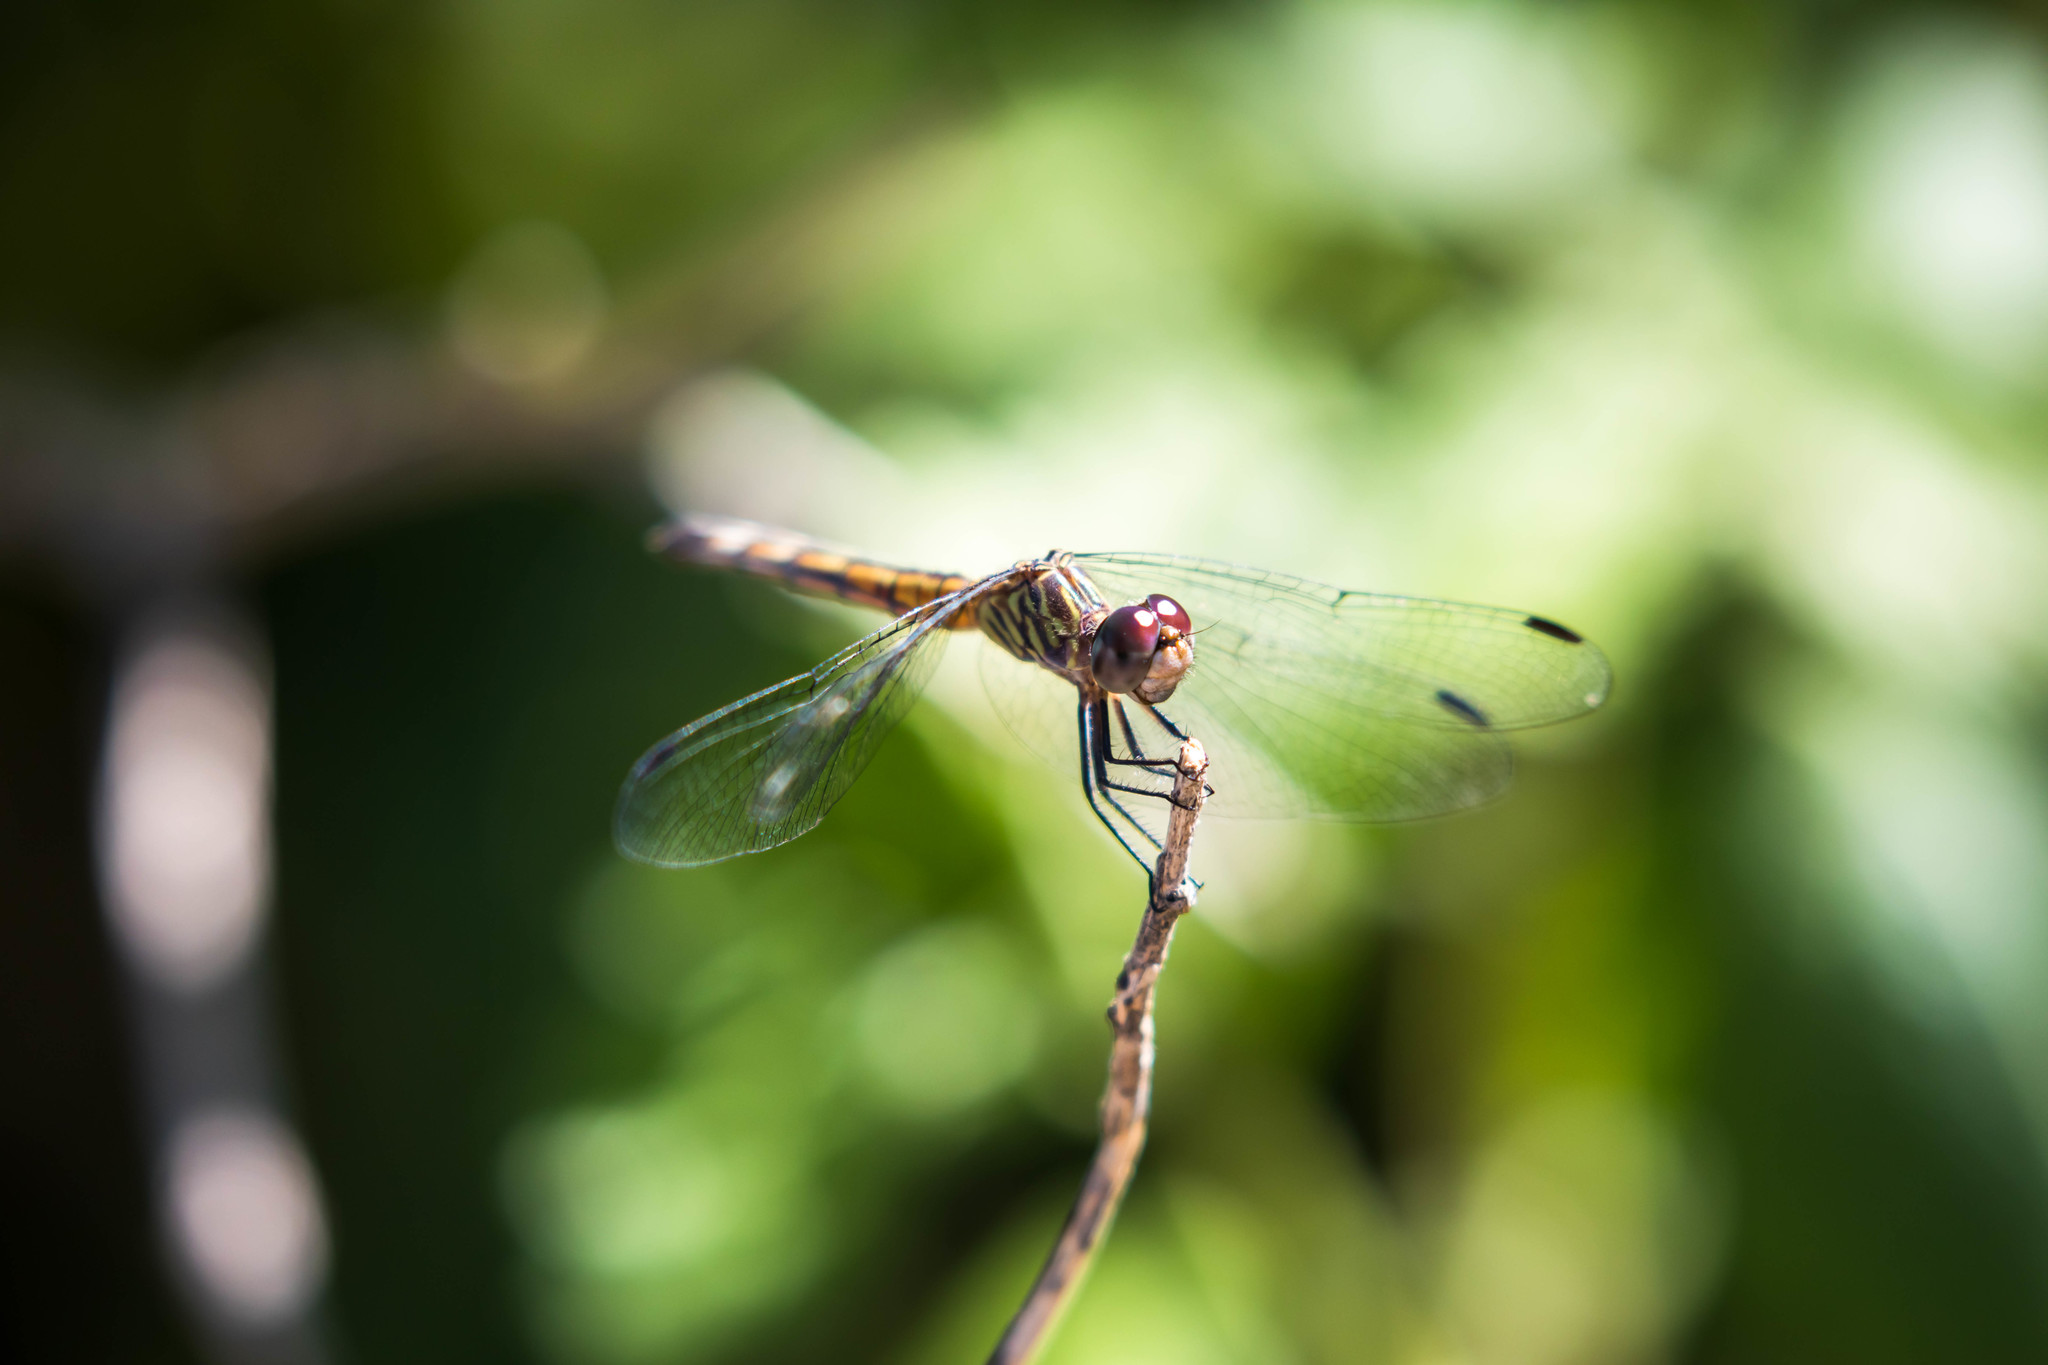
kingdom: Animalia
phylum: Arthropoda
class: Insecta
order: Odonata
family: Libellulidae
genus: Micrathyria
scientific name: Micrathyria aequalis
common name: Spot-tailed dasher
